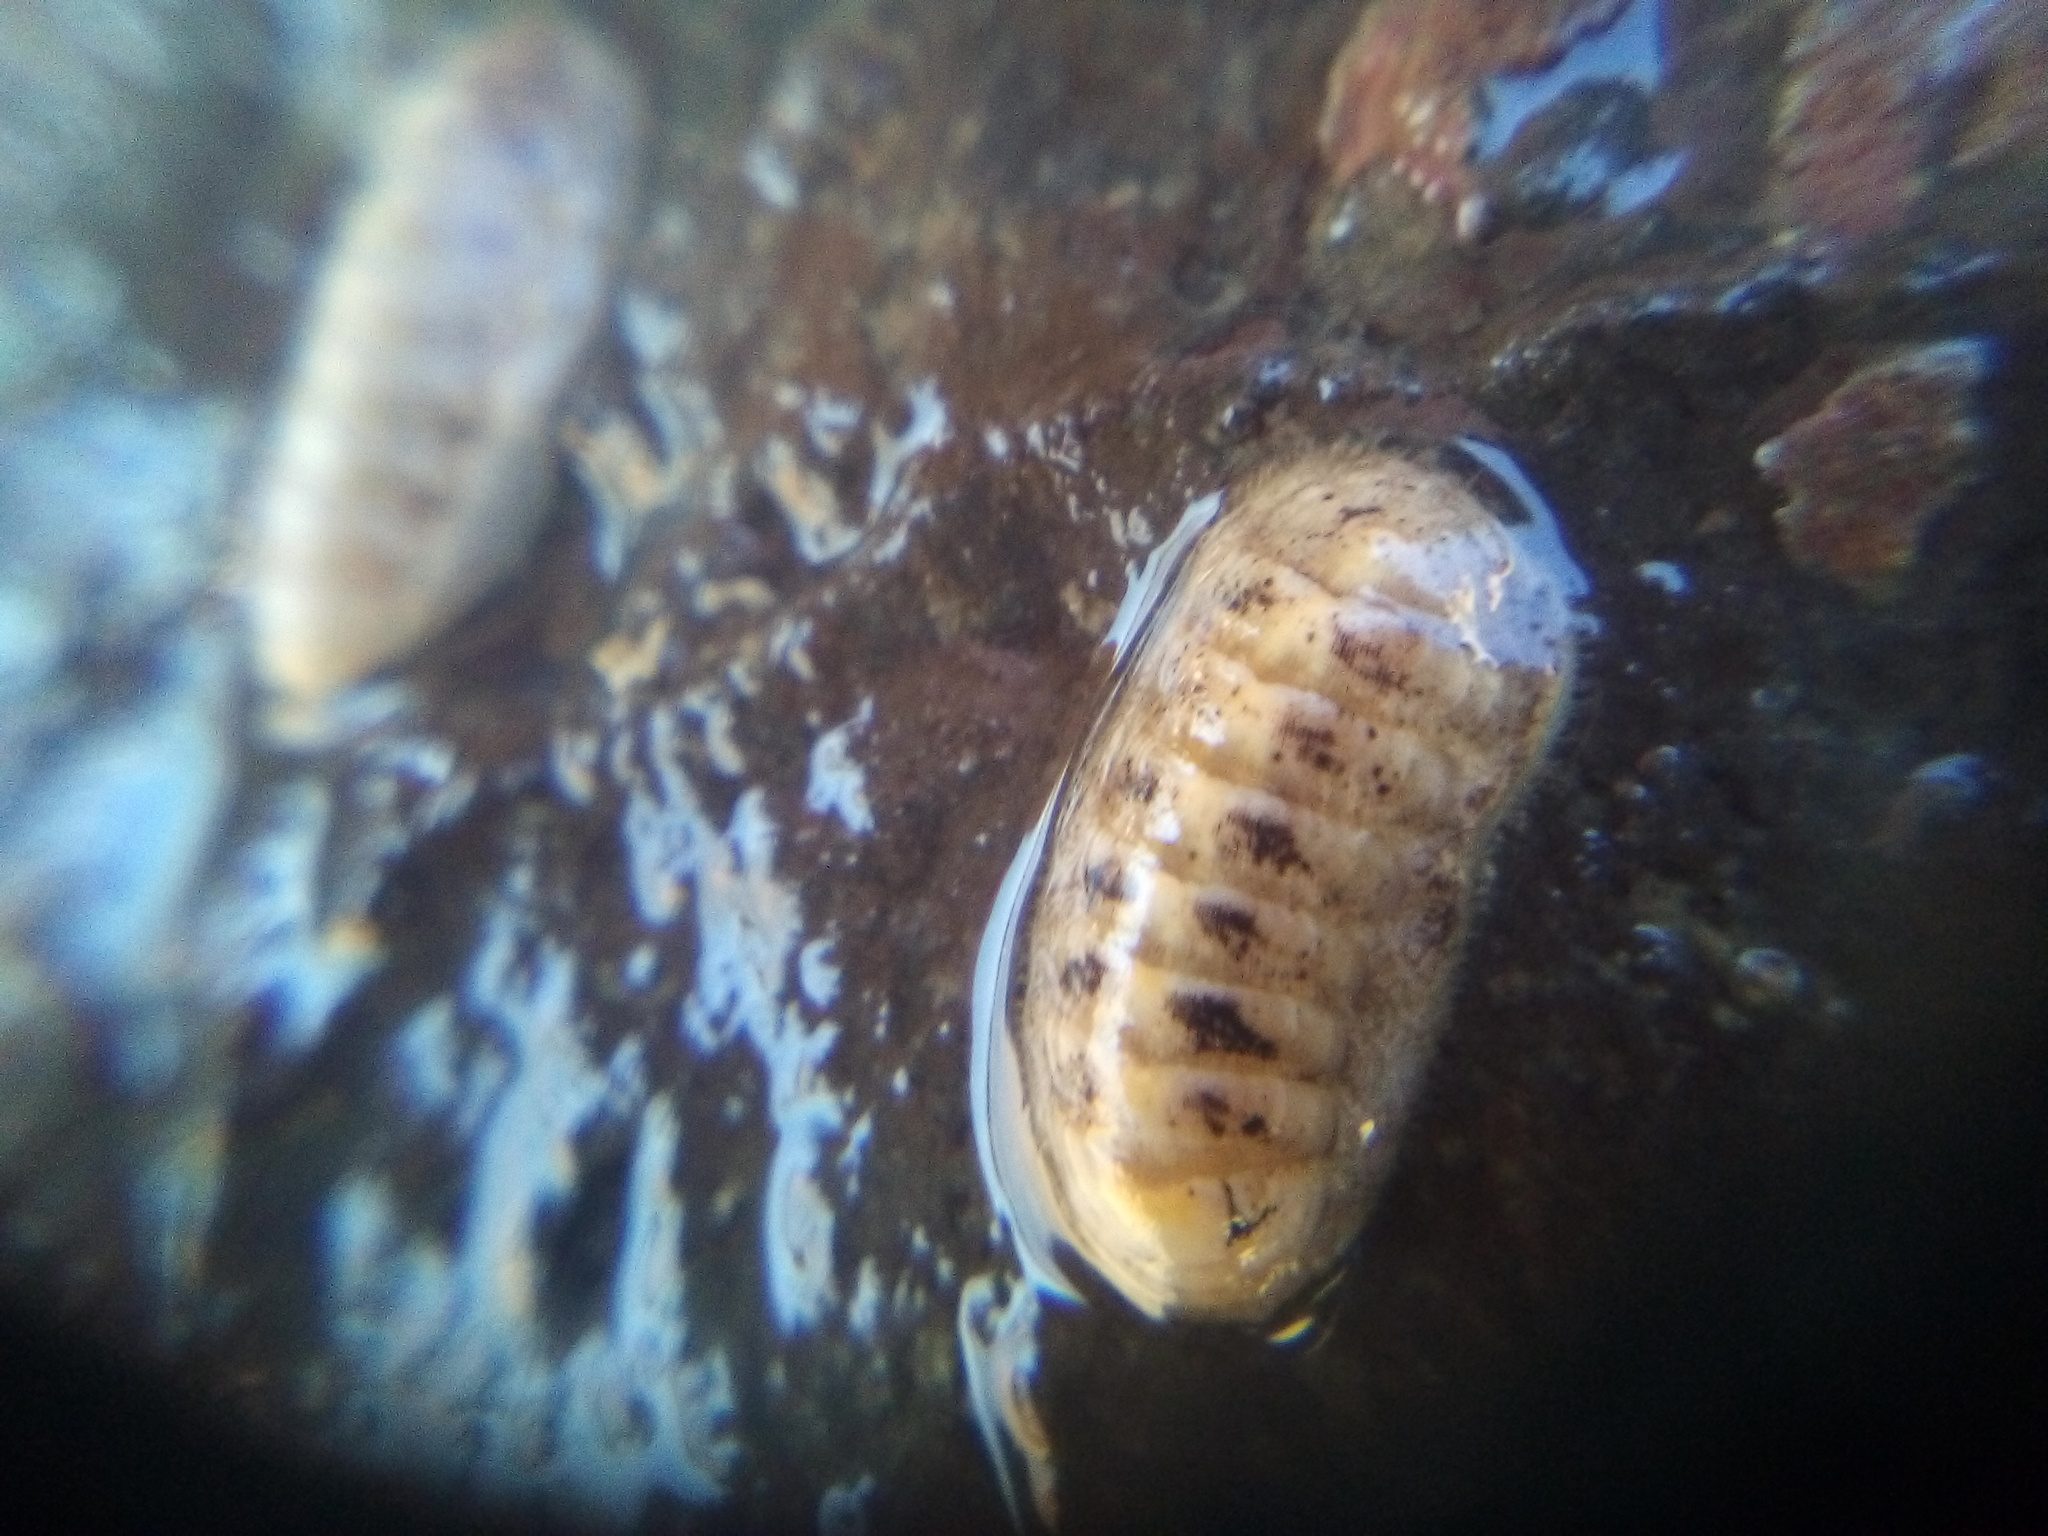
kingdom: Animalia
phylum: Mollusca
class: Polyplacophora
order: Lepidopleurida
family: Leptochitonidae
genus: Leptochiton
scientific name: Leptochiton inquinatus
